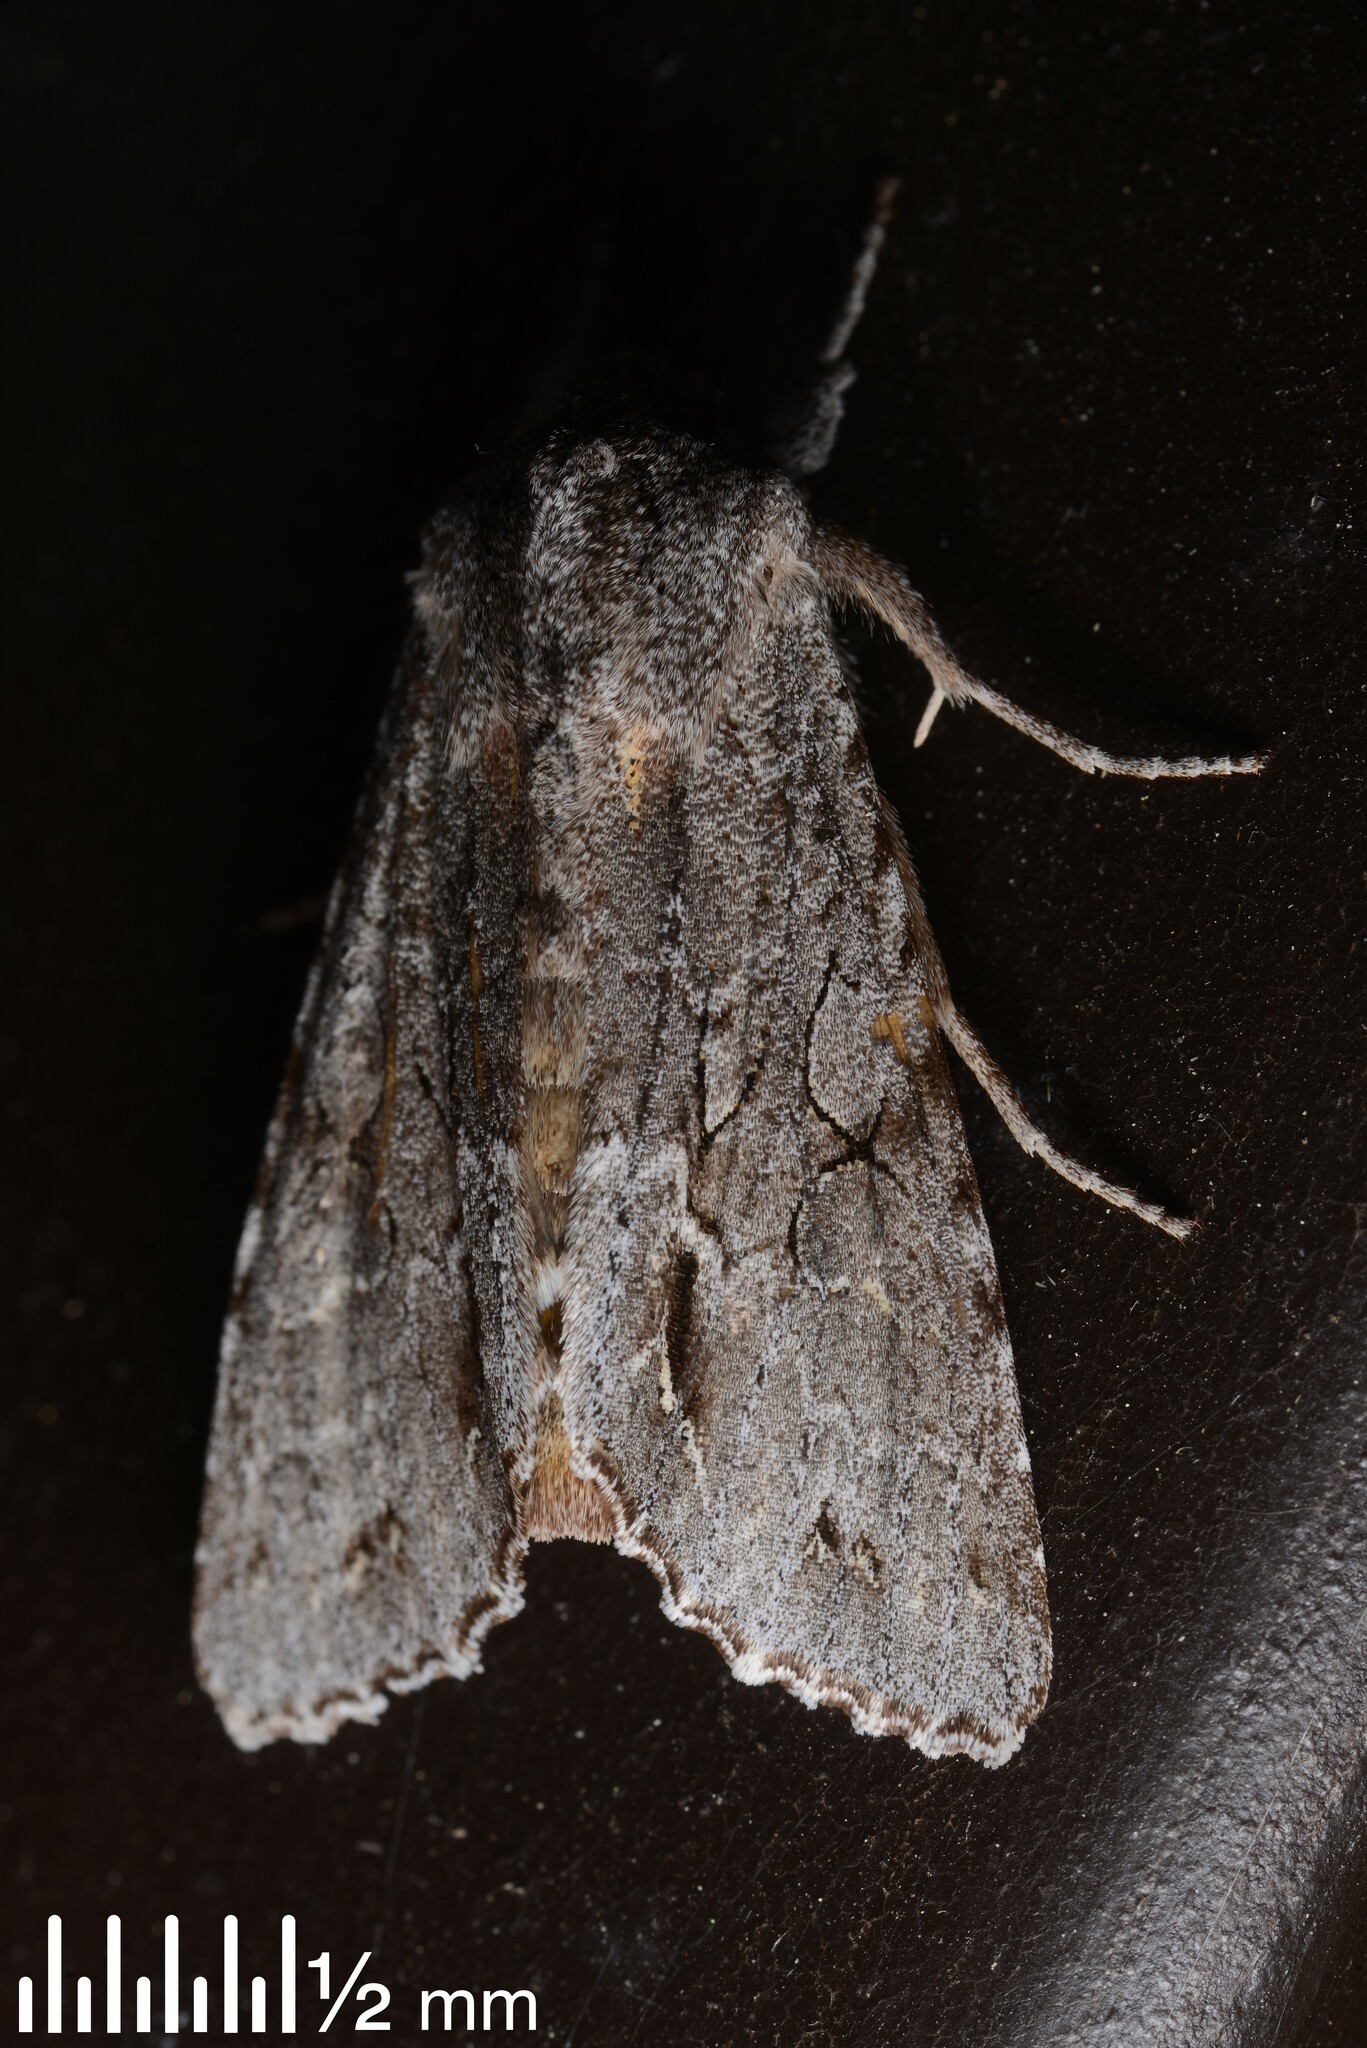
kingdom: Animalia
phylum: Arthropoda
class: Insecta
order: Lepidoptera
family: Noctuidae
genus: Ichneutica
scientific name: Ichneutica
